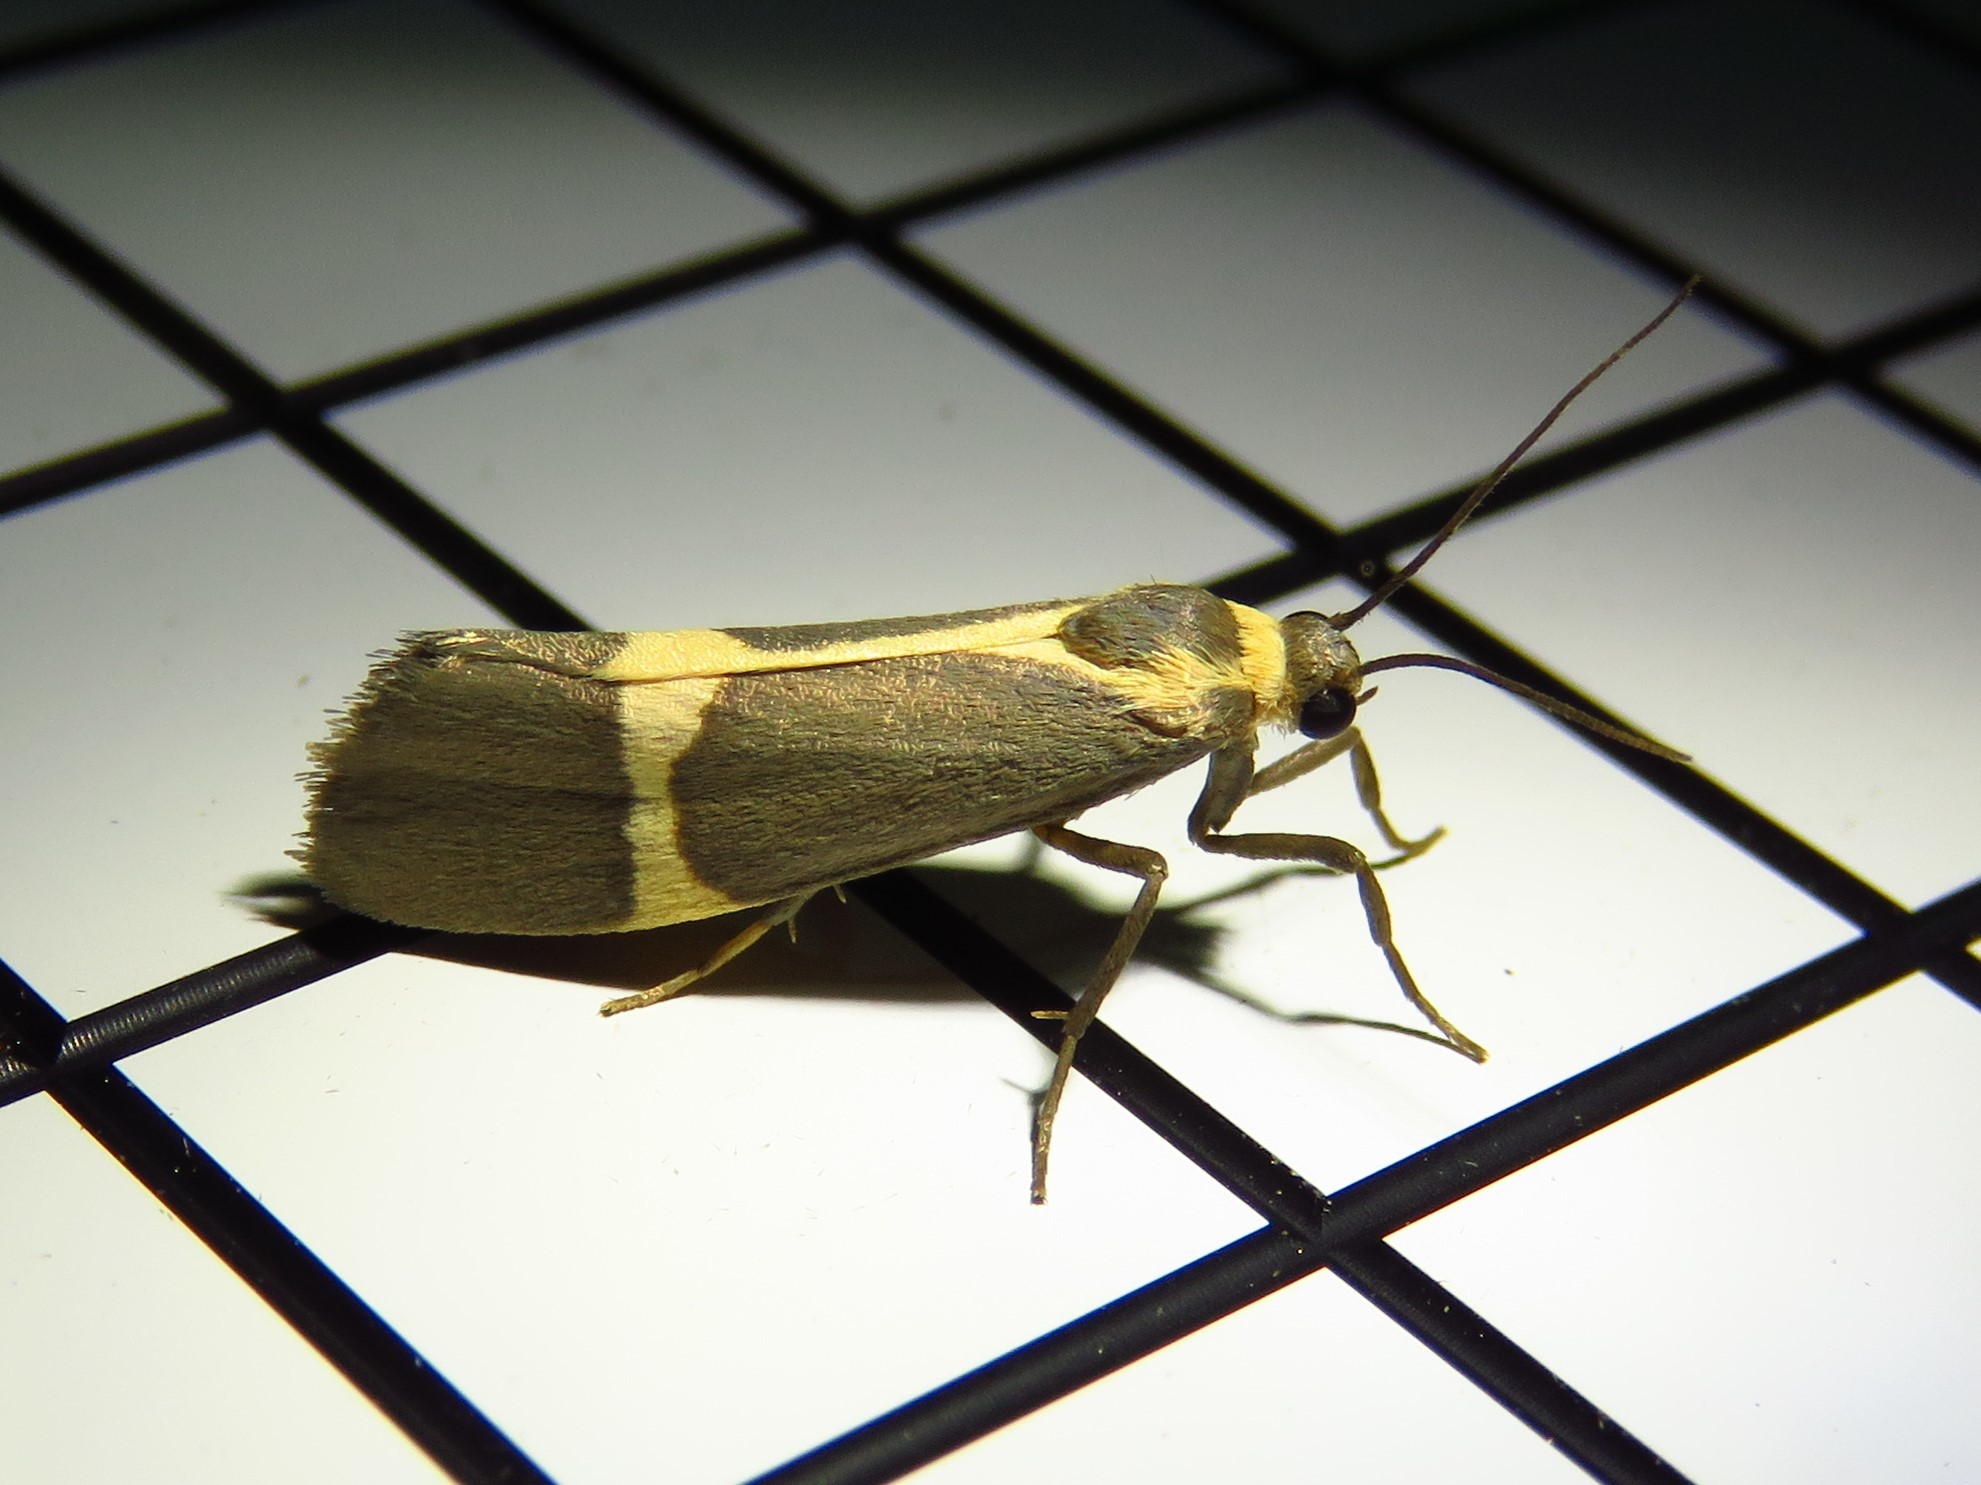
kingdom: Animalia
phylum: Arthropoda
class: Insecta
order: Lepidoptera
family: Erebidae
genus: Cisthene
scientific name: Cisthene barnesii
